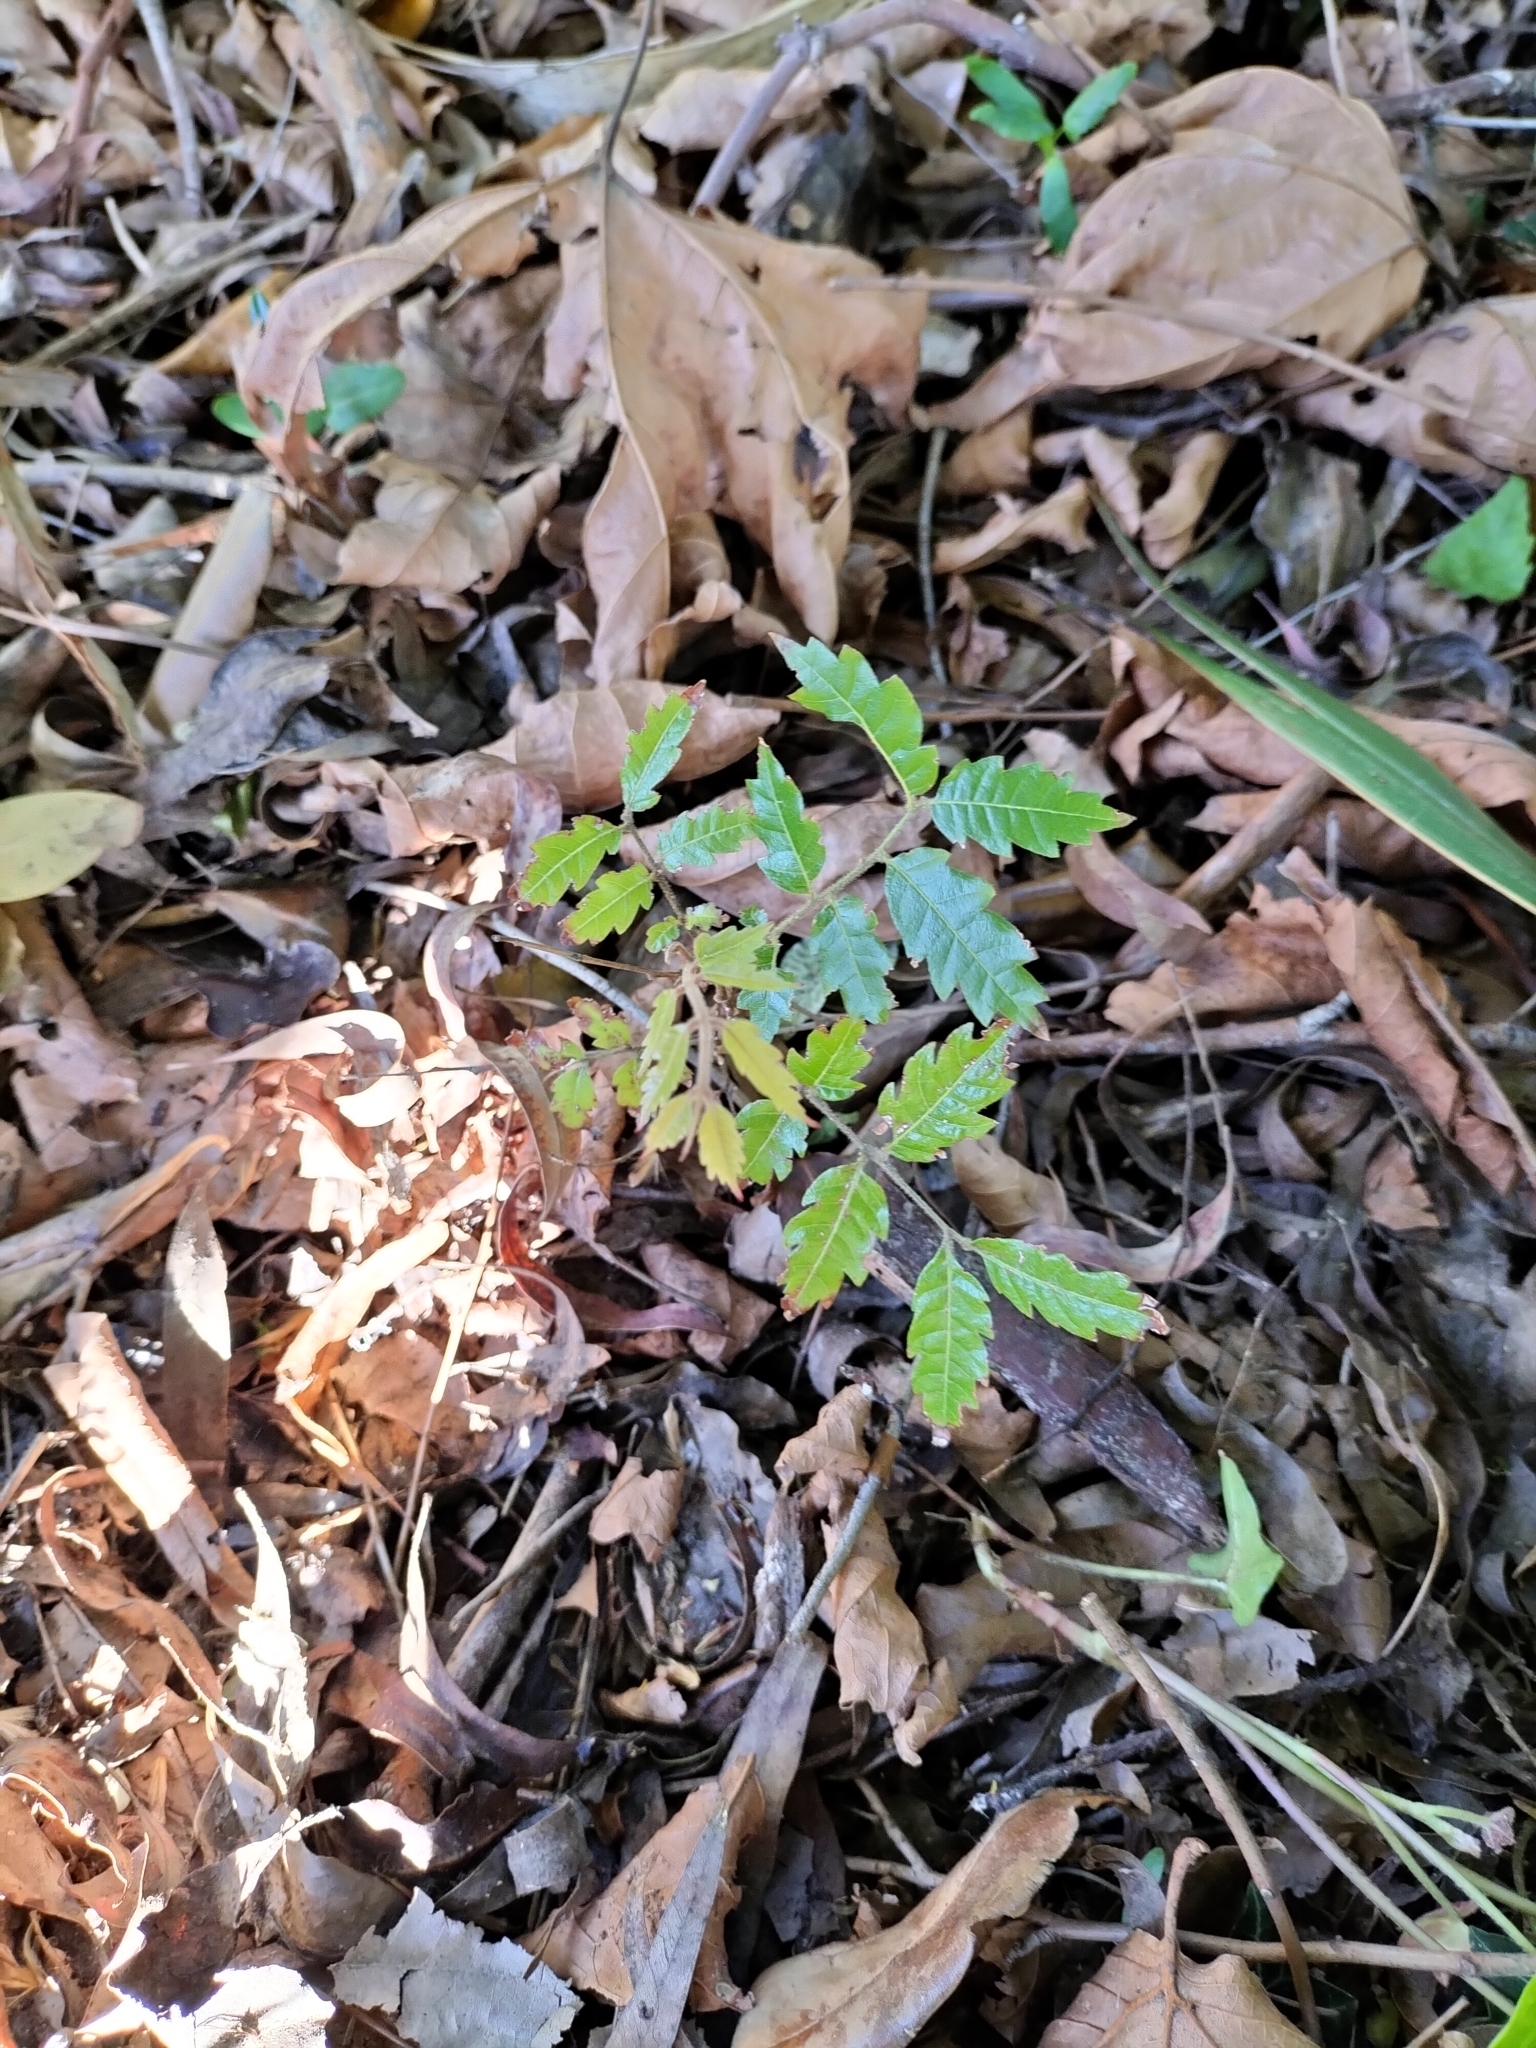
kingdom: Plantae
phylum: Tracheophyta
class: Magnoliopsida
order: Sapindales
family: Sapindaceae
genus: Alectryon
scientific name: Alectryon excelsus
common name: Three kings titoki
